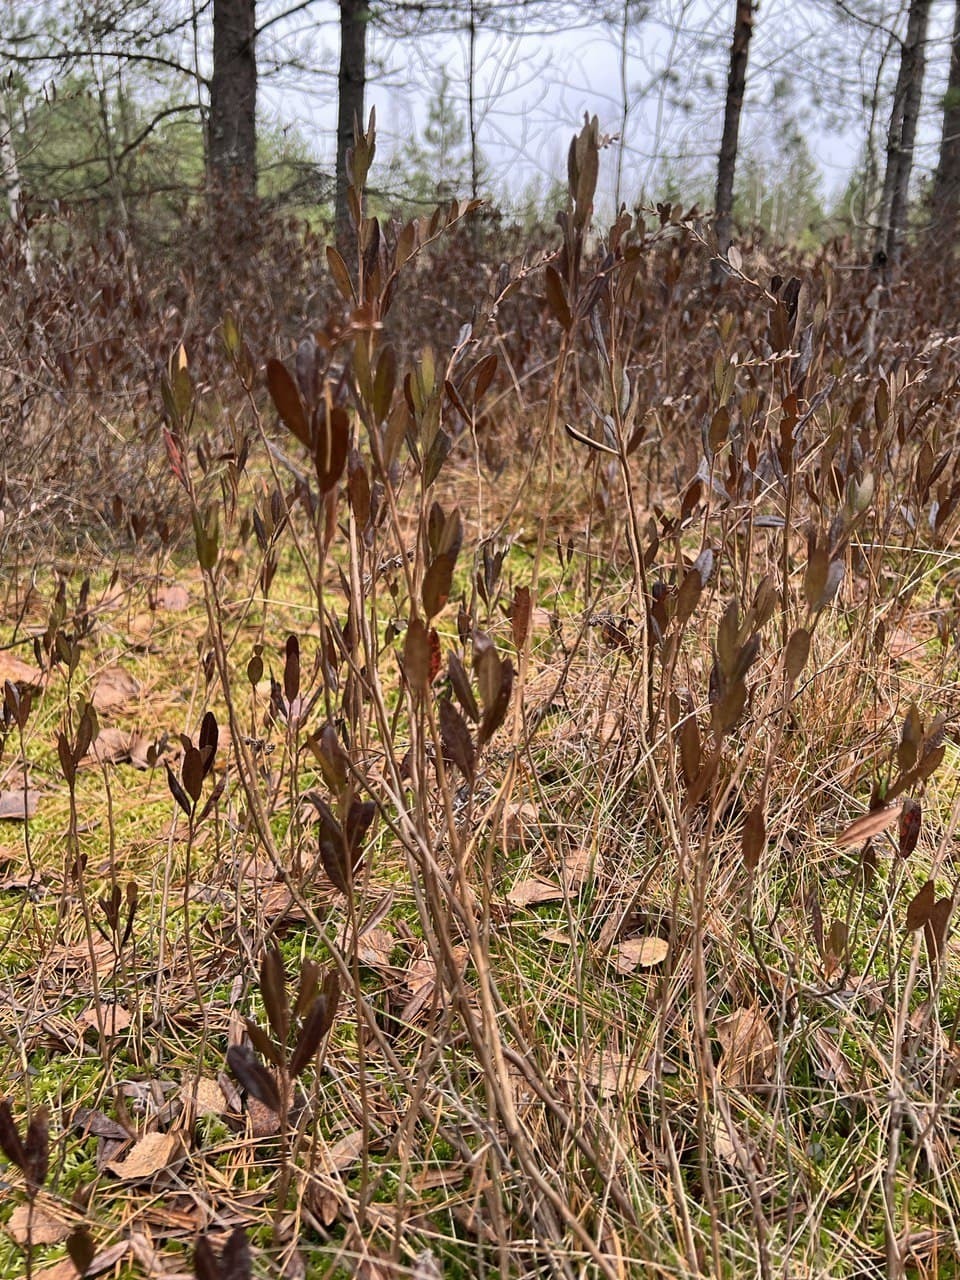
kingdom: Plantae
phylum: Tracheophyta
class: Magnoliopsida
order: Ericales
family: Ericaceae
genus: Chamaedaphne
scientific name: Chamaedaphne calyculata
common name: Leatherleaf
